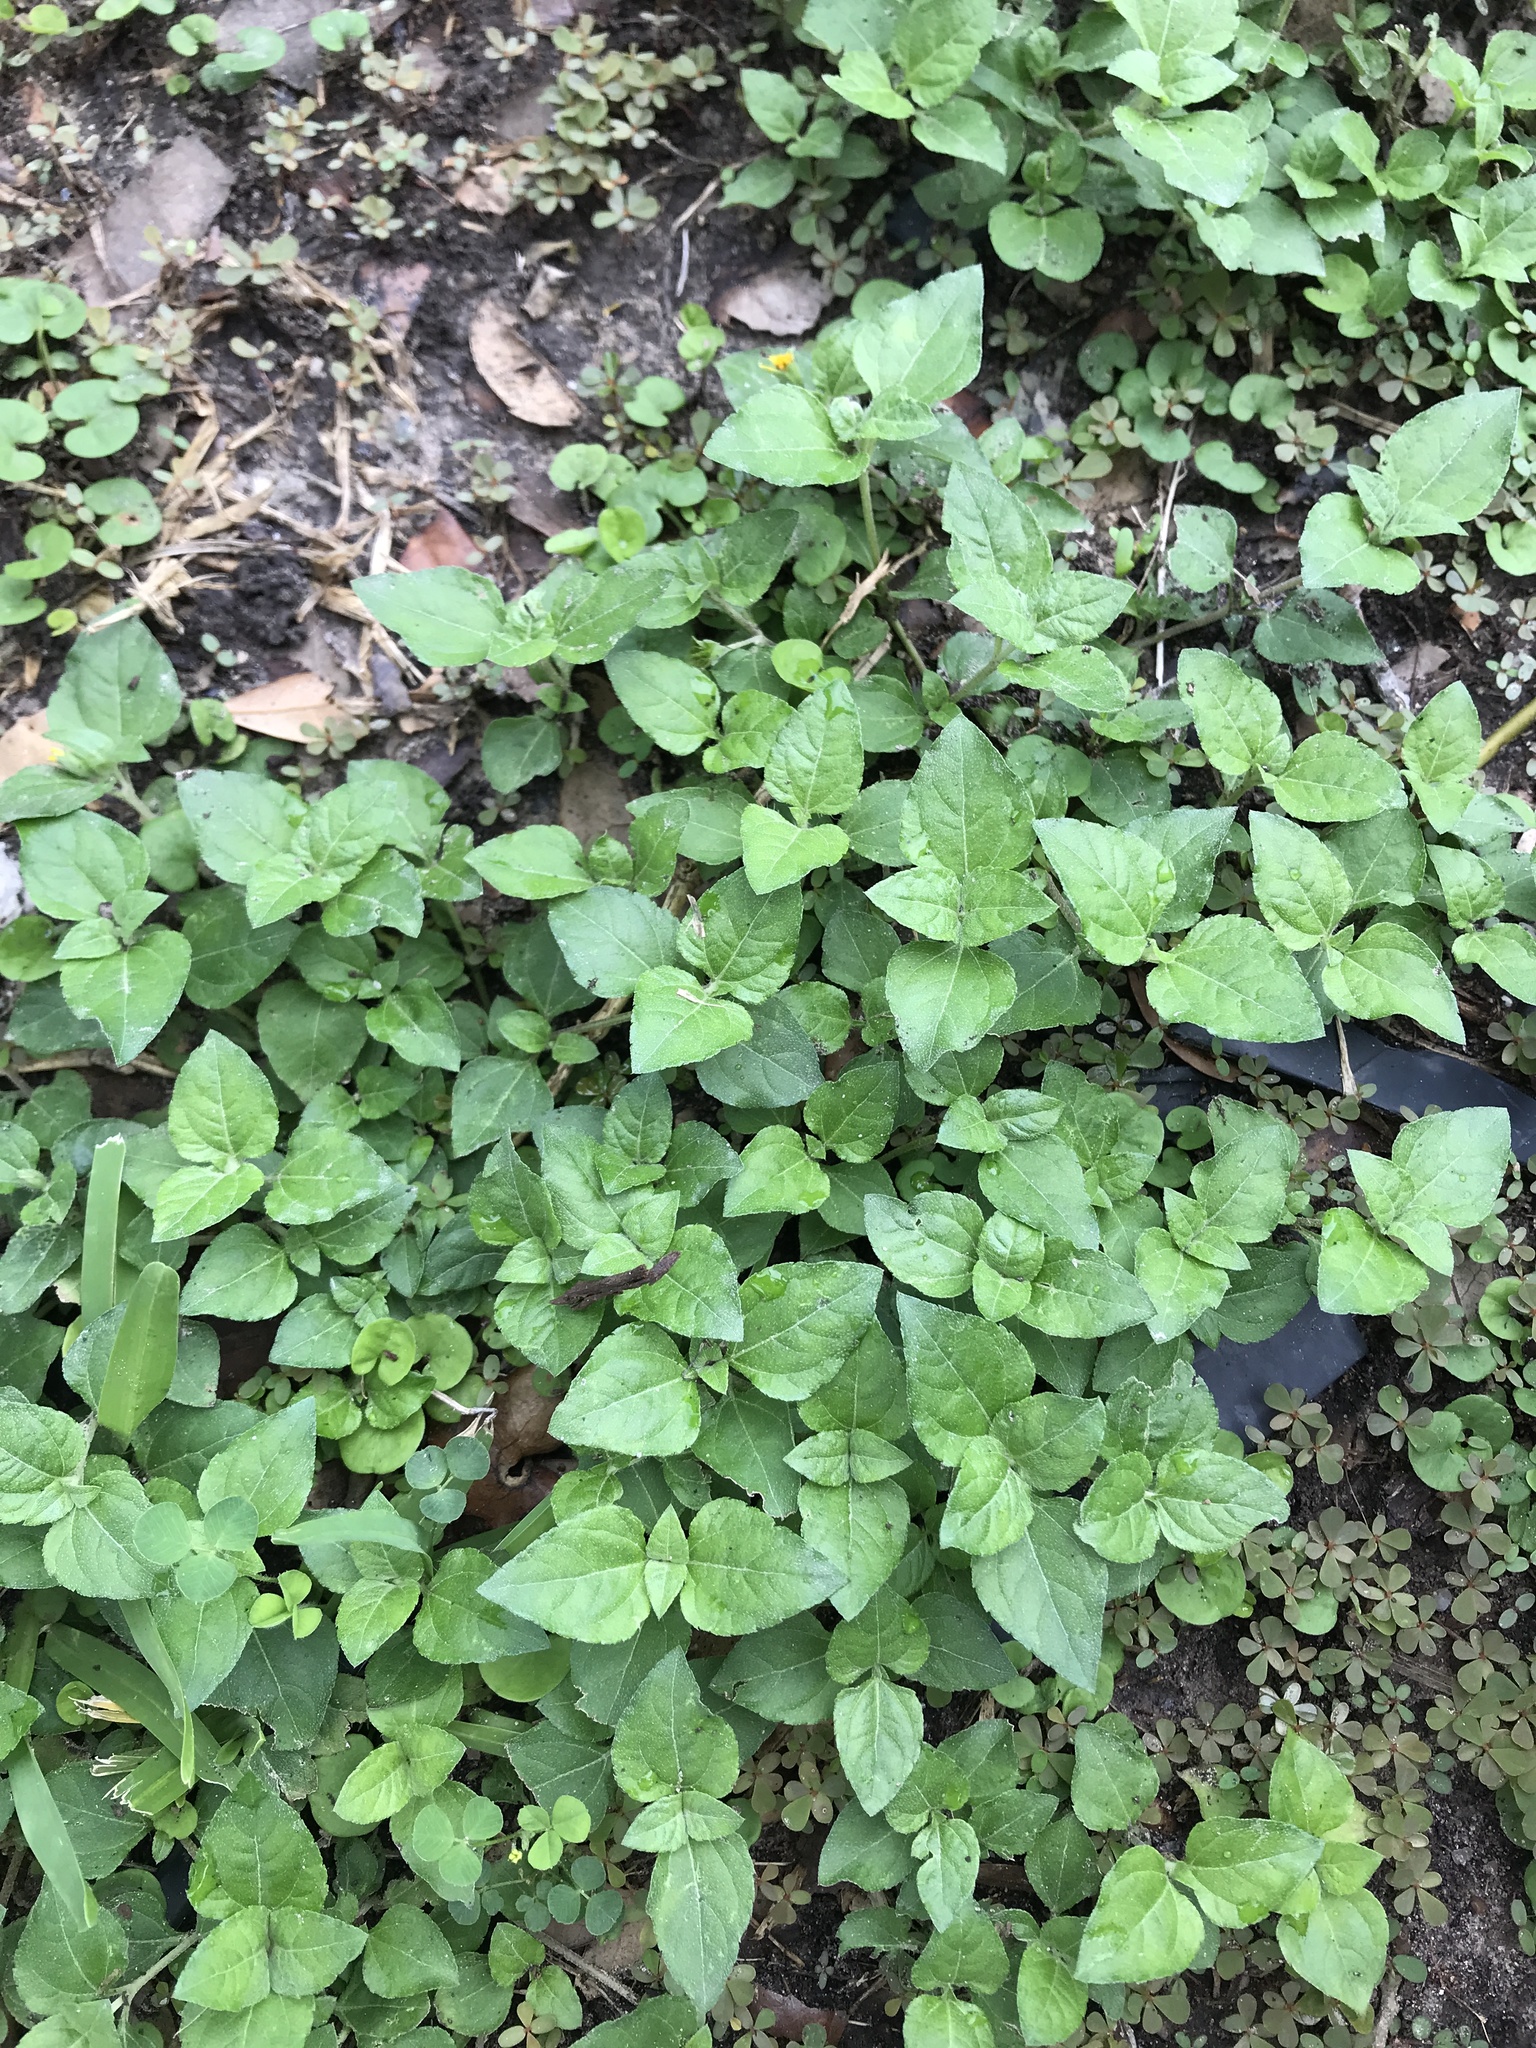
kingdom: Plantae
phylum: Tracheophyta
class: Magnoliopsida
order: Asterales
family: Asteraceae
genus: Calyptocarpus
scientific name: Calyptocarpus vialis
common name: Straggler daisy
